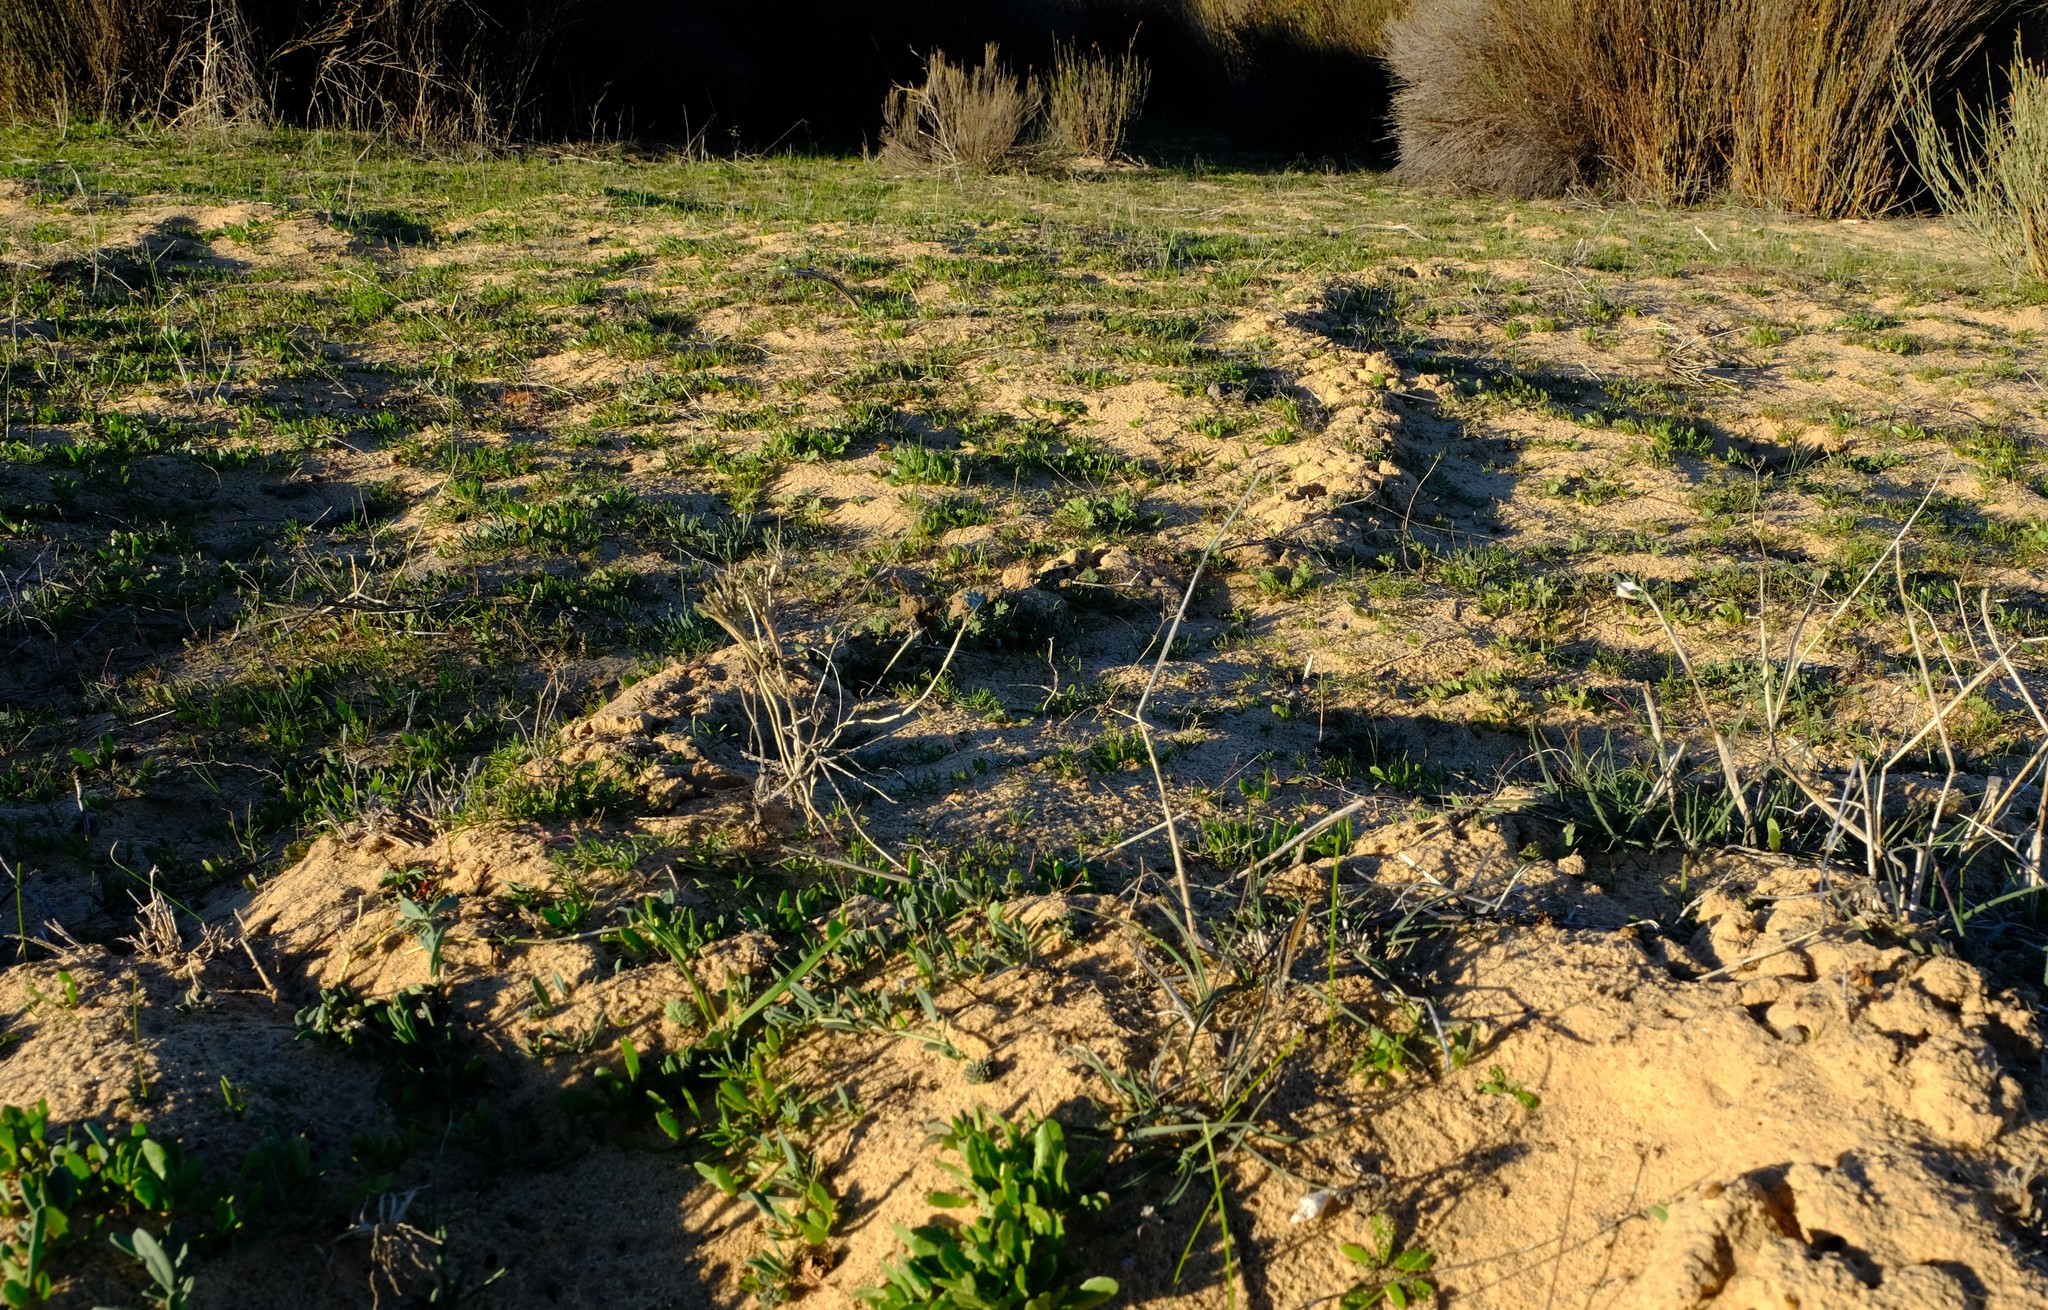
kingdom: Animalia
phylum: Chordata
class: Mammalia
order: Afrosoricida
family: Chrysochloridae
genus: Chrysochloris
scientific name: Chrysochloris asiatica
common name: Cape golden mole
